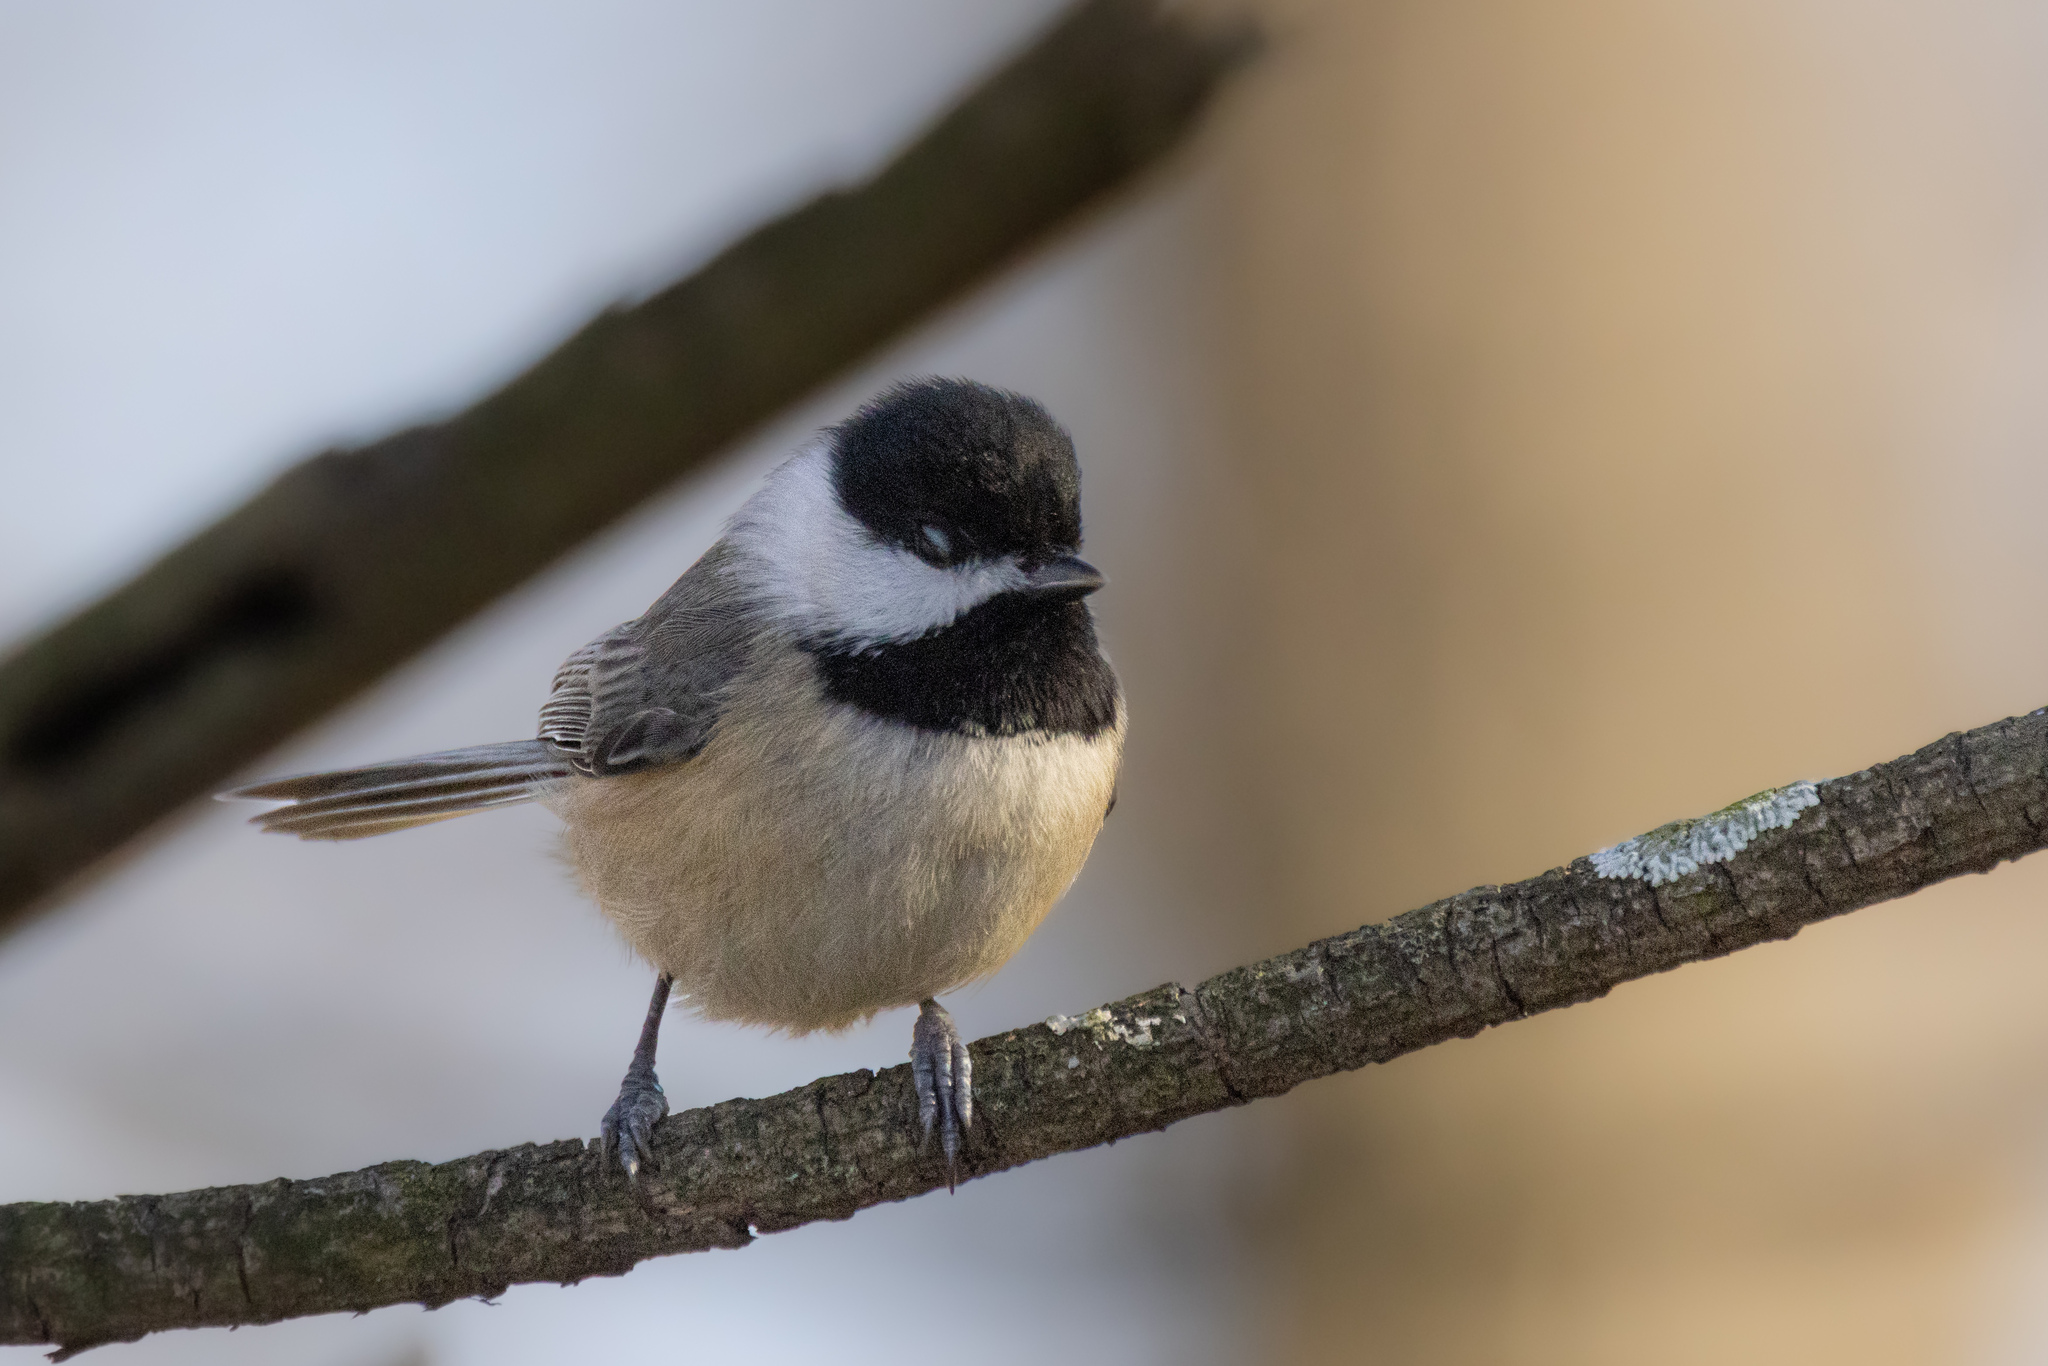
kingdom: Animalia
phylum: Chordata
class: Aves
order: Passeriformes
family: Paridae
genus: Poecile
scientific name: Poecile carolinensis
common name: Carolina chickadee
